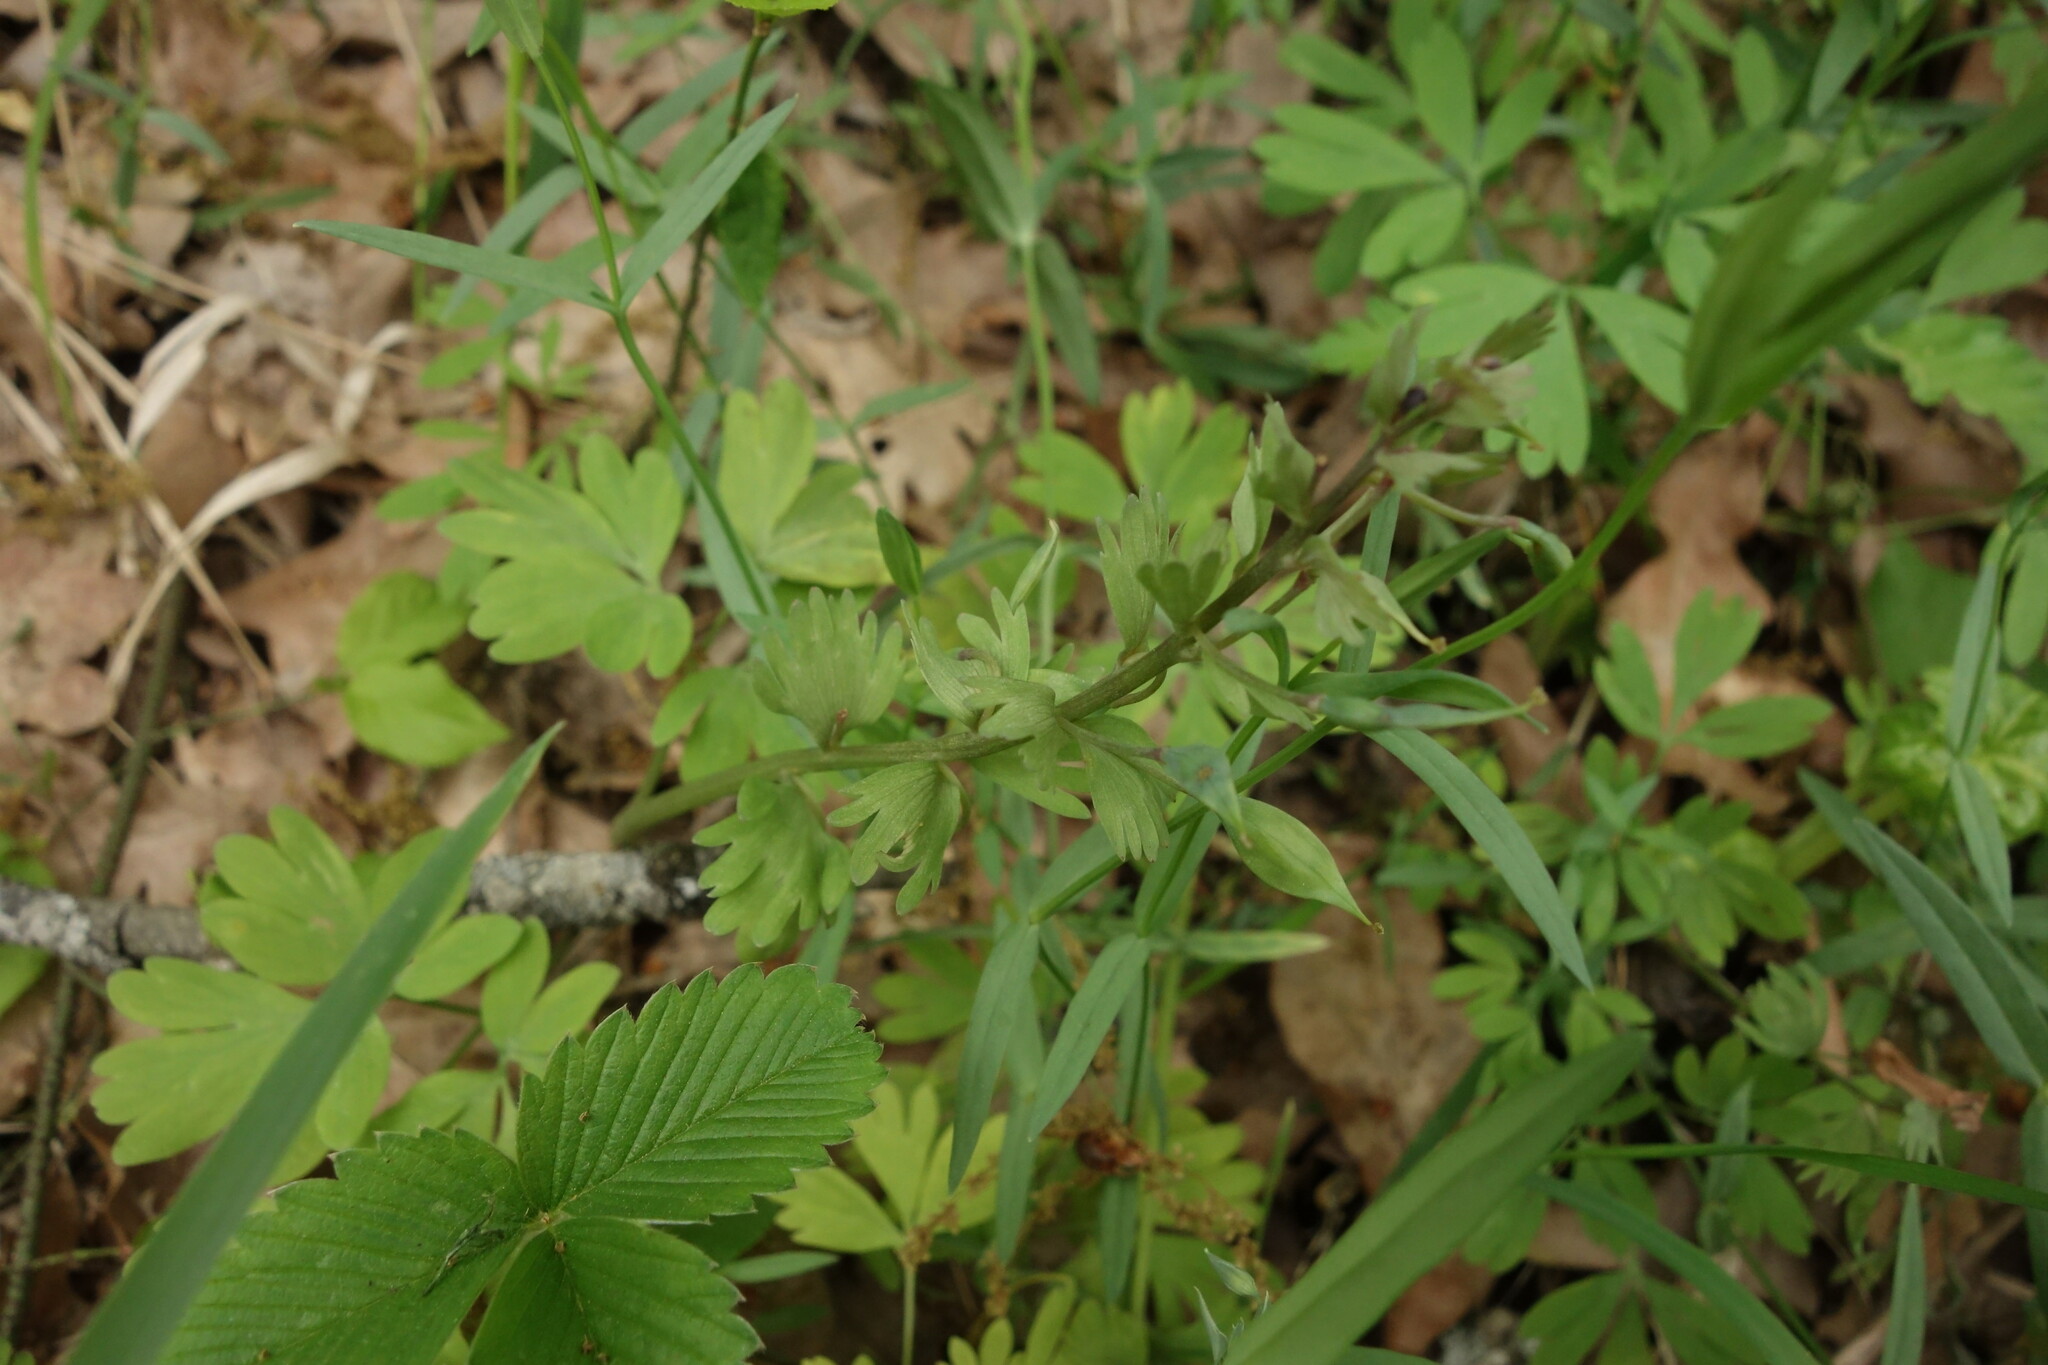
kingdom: Plantae
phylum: Tracheophyta
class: Magnoliopsida
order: Ranunculales
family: Papaveraceae
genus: Corydalis
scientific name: Corydalis solida
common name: Bird-in-a-bush
